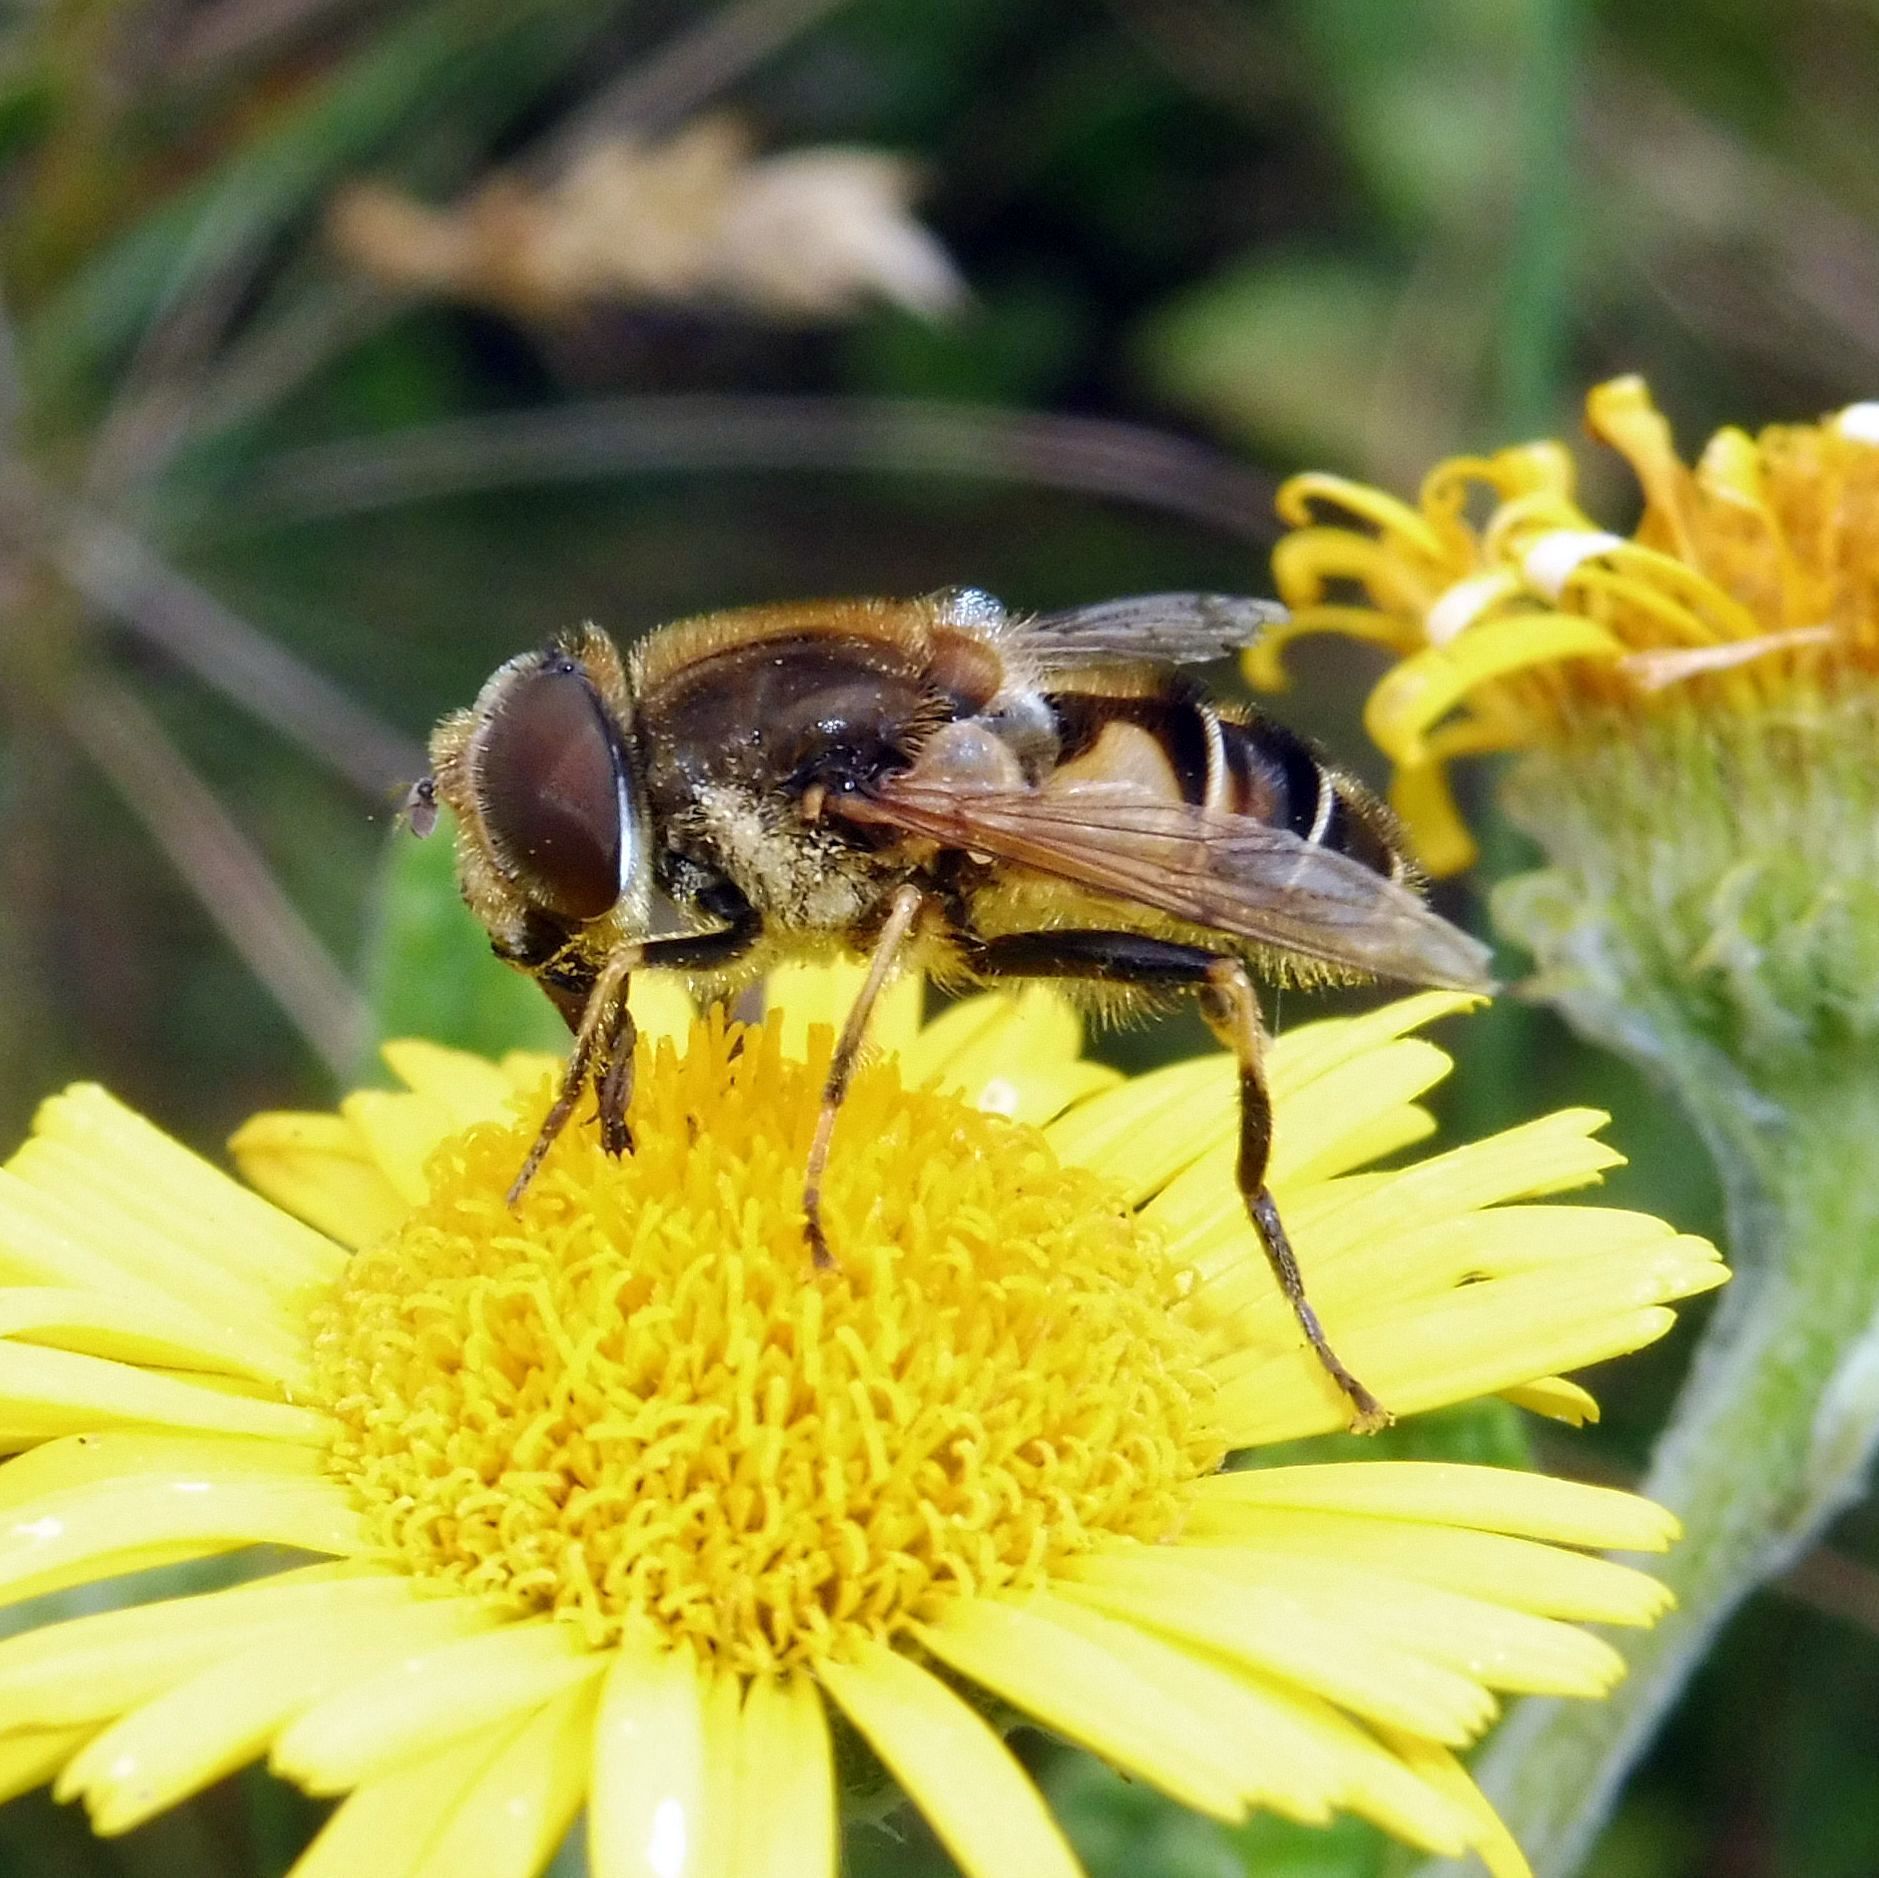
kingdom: Animalia
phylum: Arthropoda
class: Insecta
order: Diptera
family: Syrphidae
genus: Eristalis
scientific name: Eristalis nemorum
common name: Orange-spined drone fly
